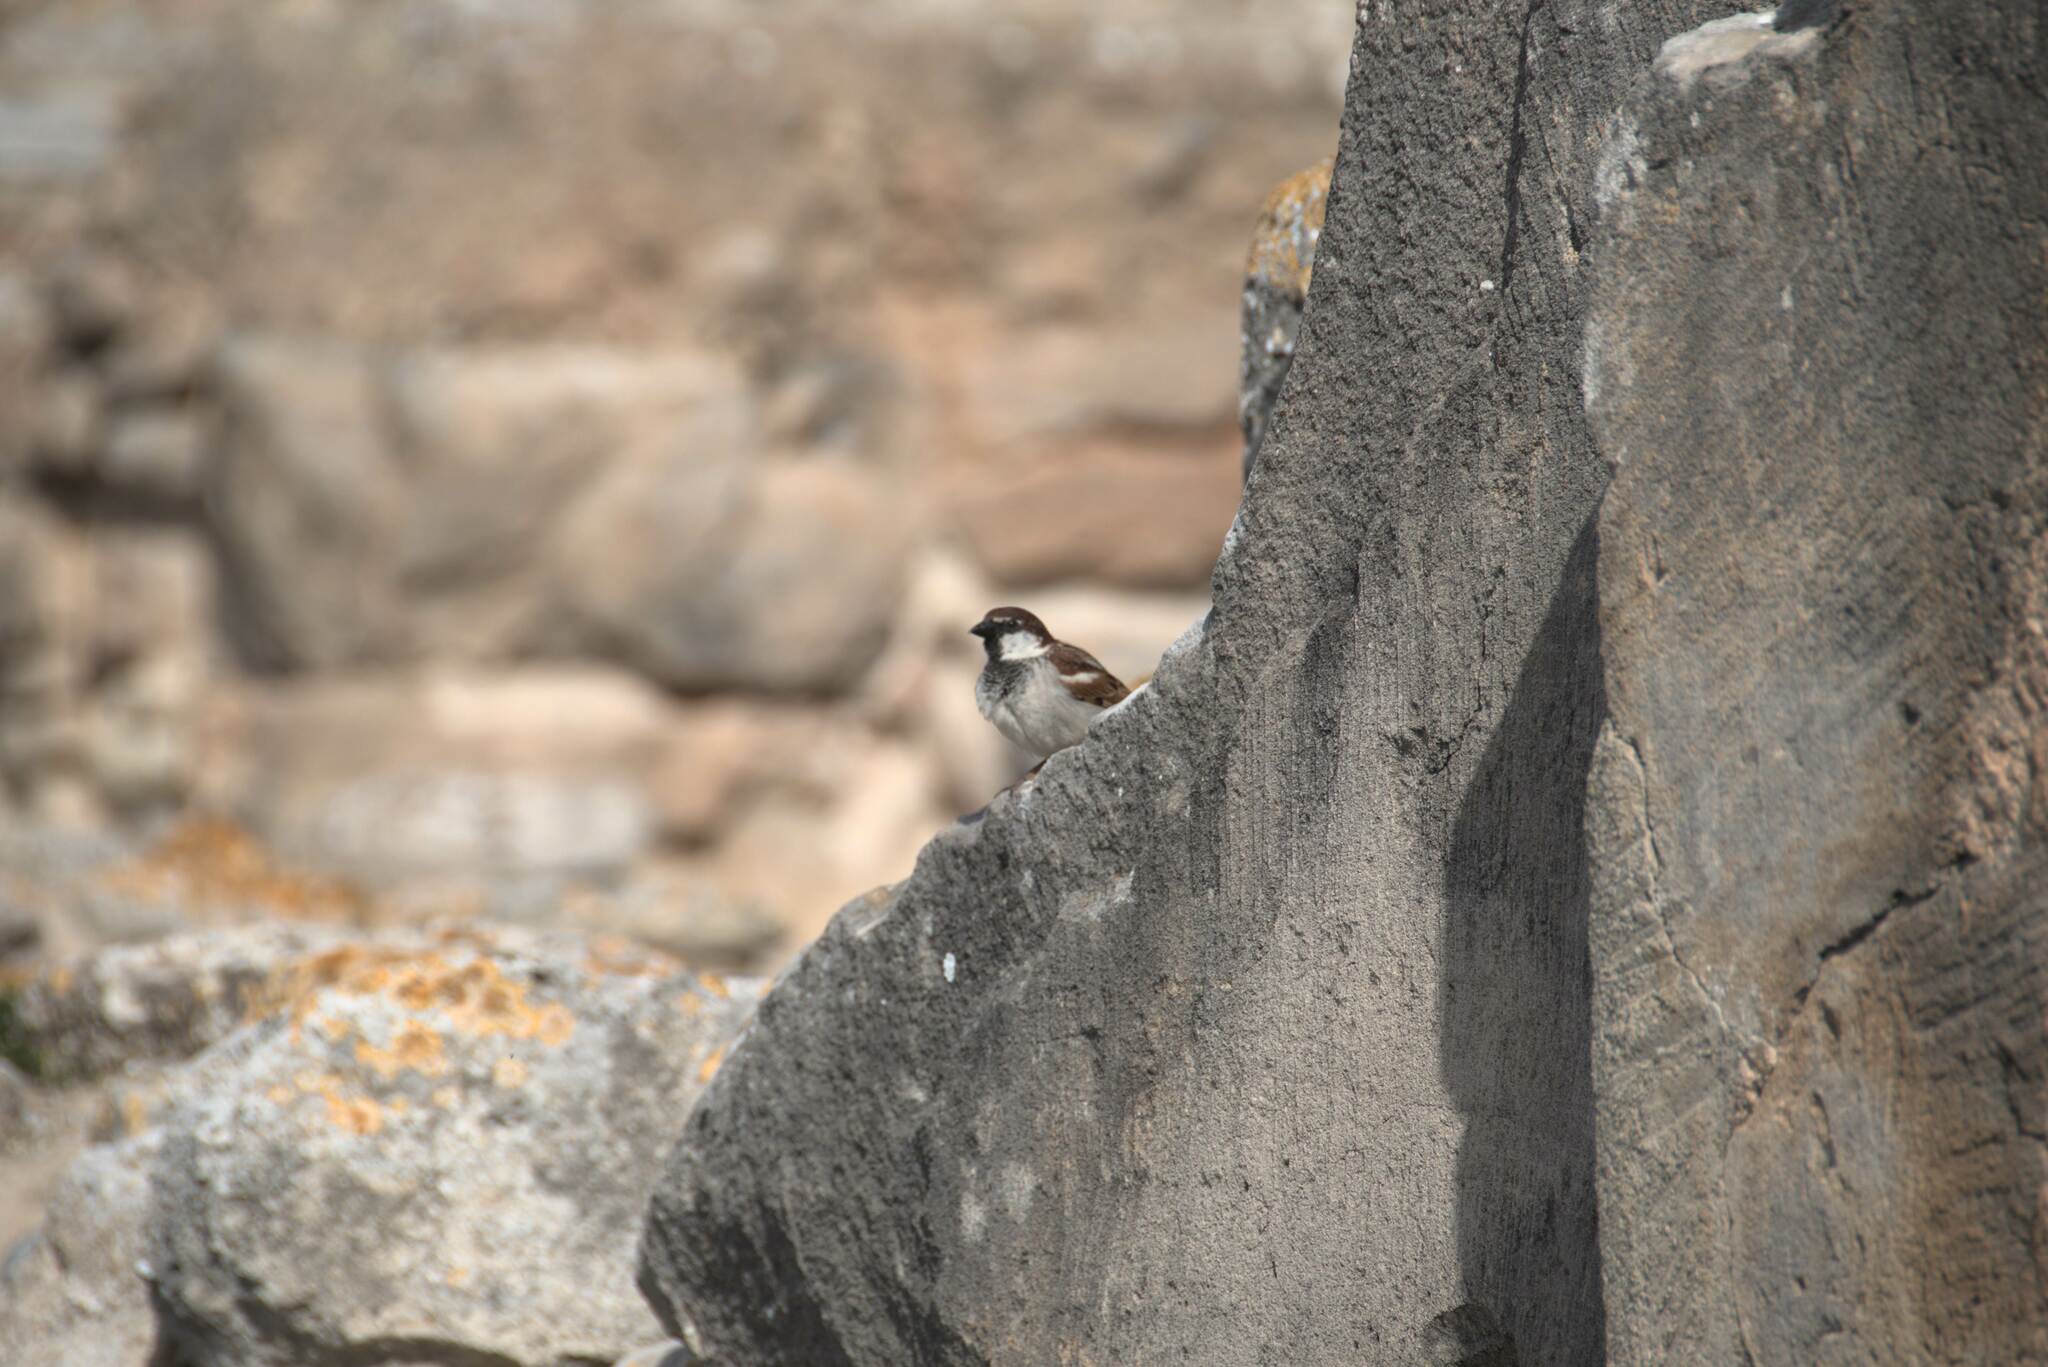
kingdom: Animalia
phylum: Chordata
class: Aves
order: Passeriformes
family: Passeridae
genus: Passer
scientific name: Passer italiae
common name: Italian sparrow
